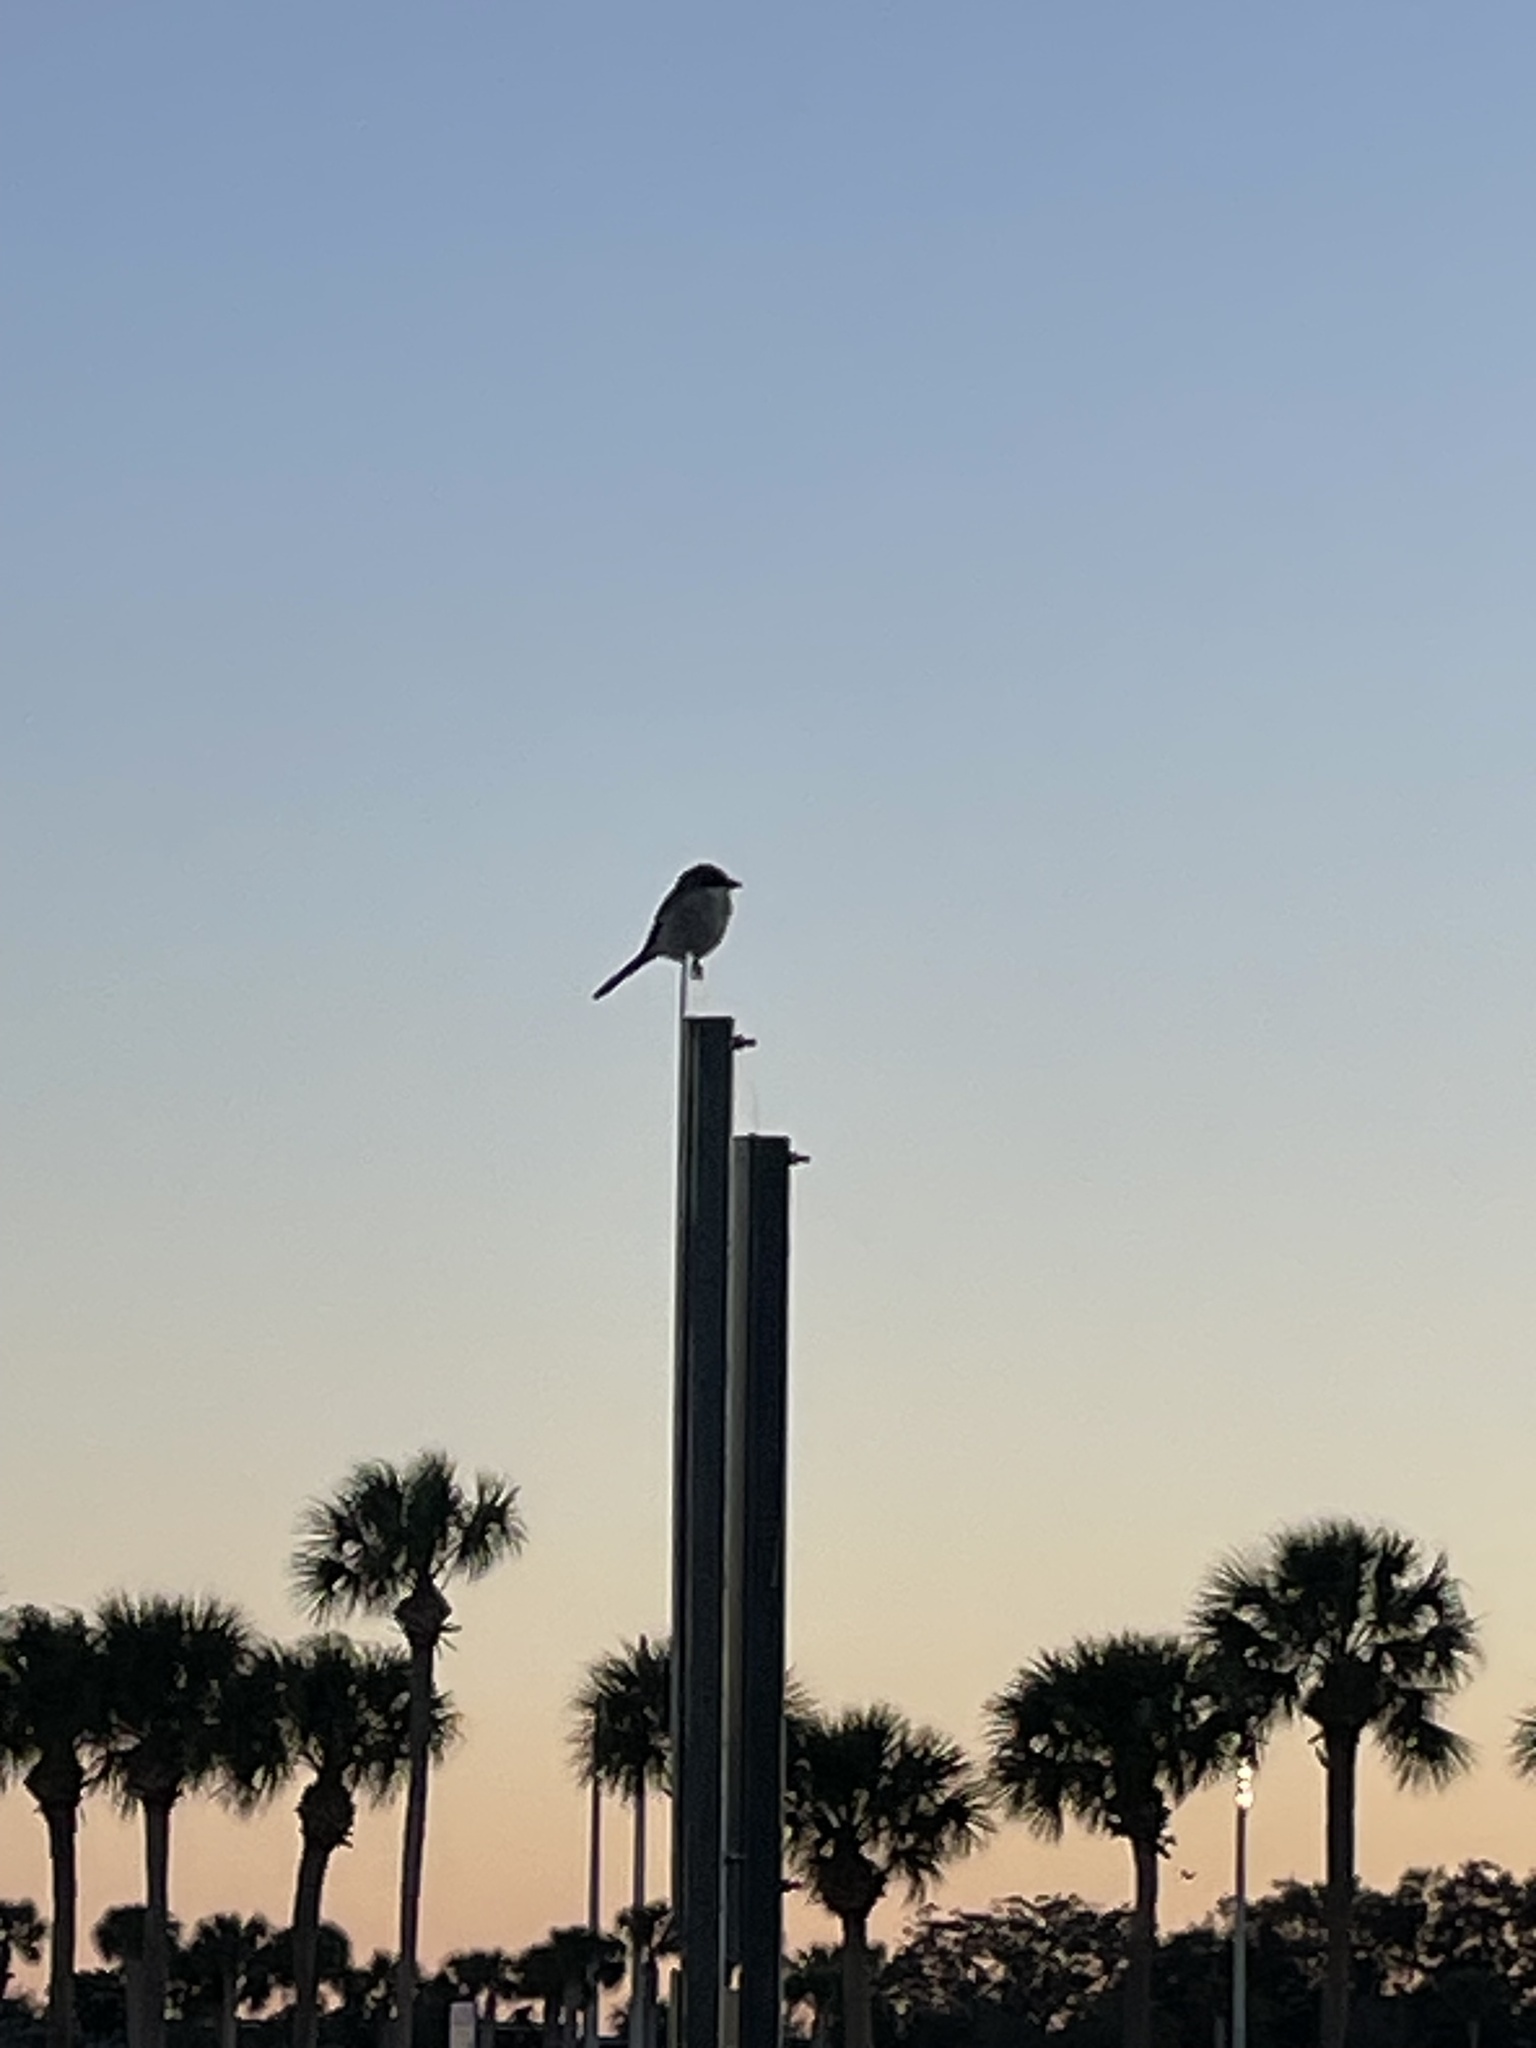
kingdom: Animalia
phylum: Chordata
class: Aves
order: Passeriformes
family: Laniidae
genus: Lanius
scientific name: Lanius ludovicianus
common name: Loggerhead shrike
